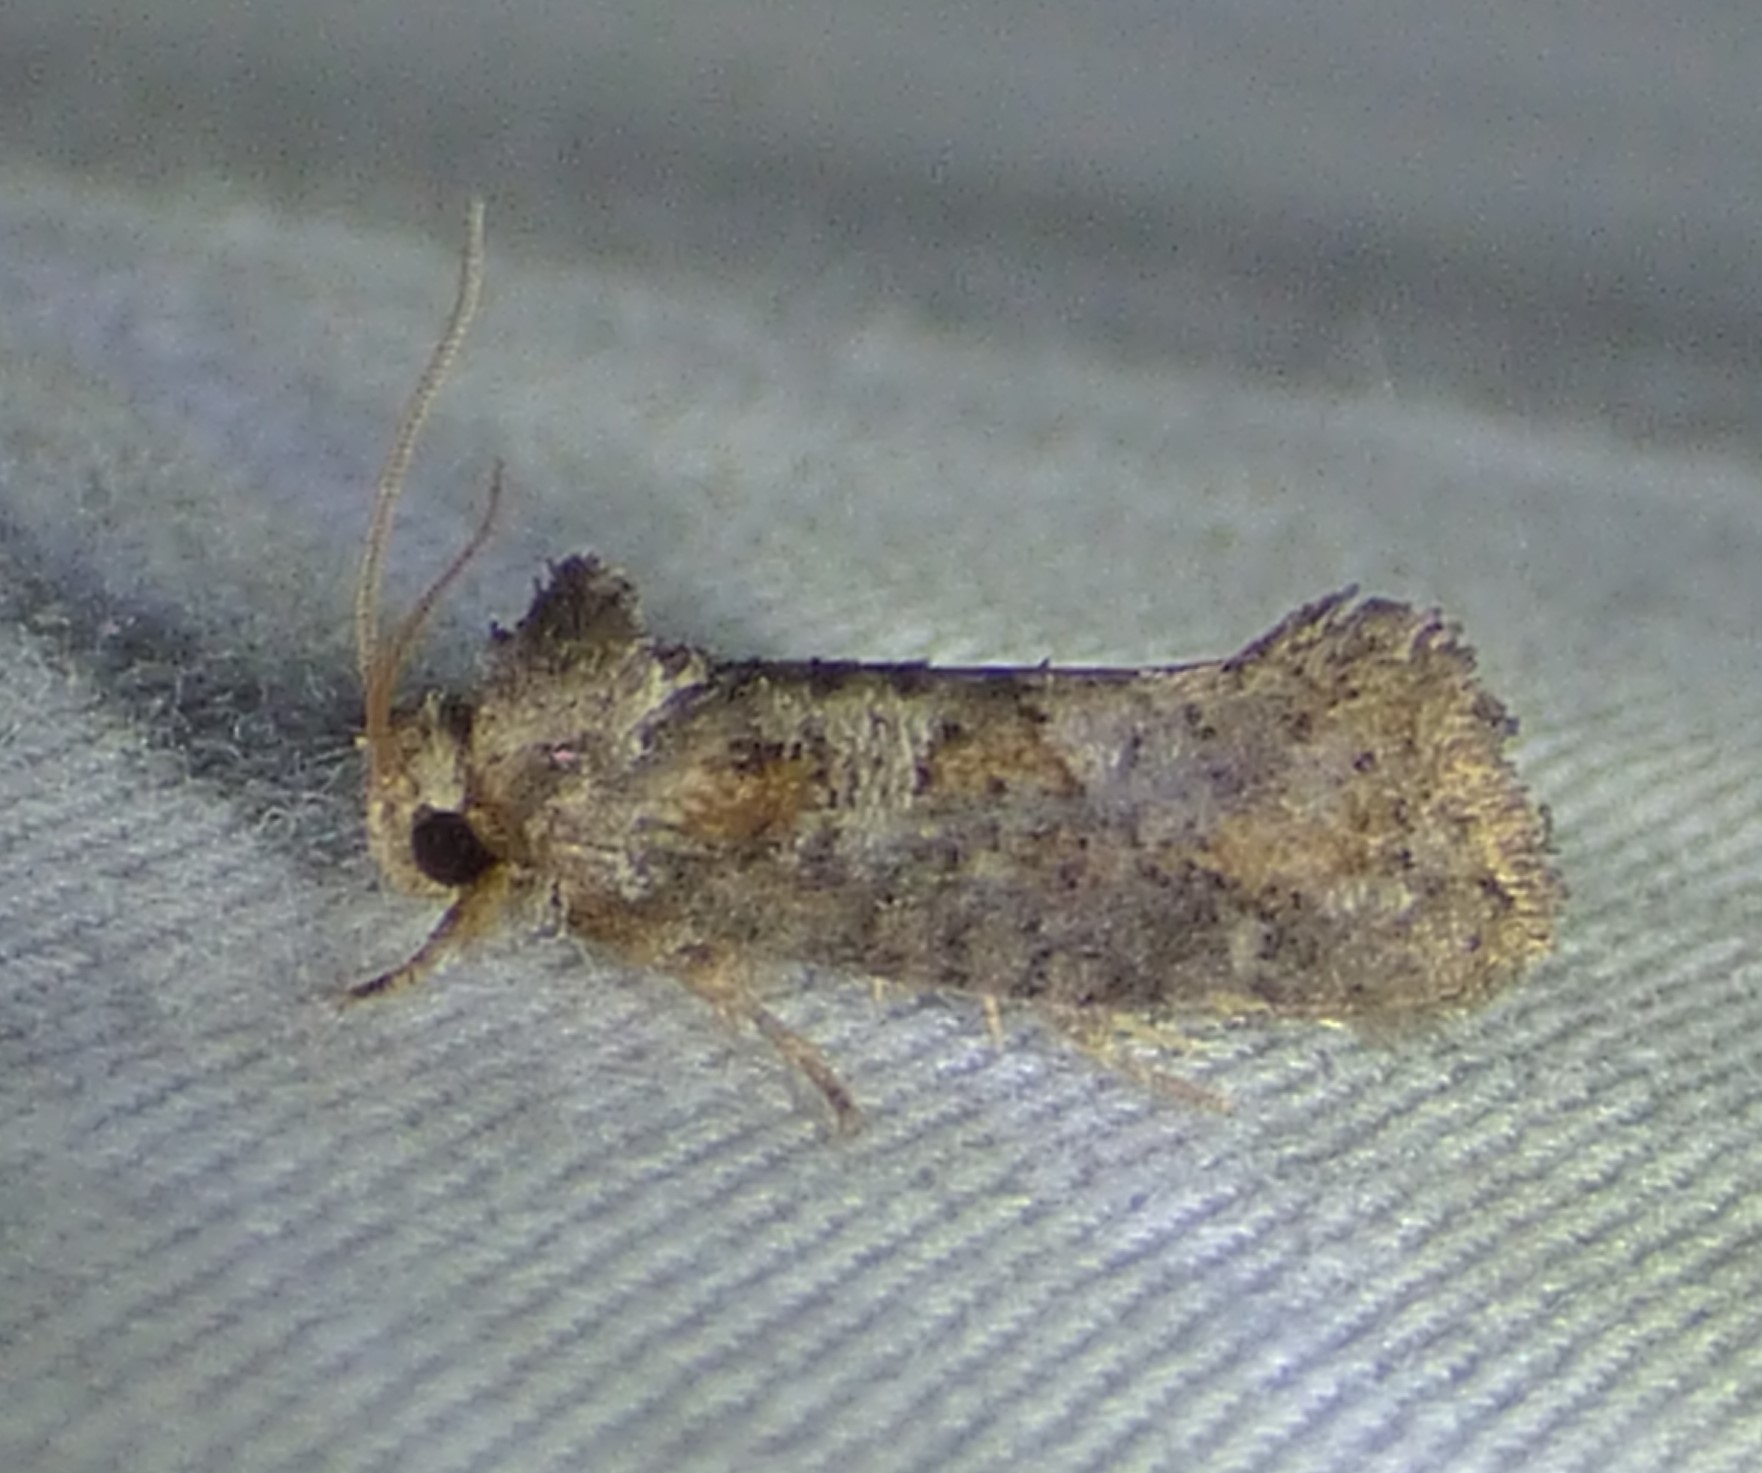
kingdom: Animalia
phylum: Arthropoda
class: Insecta
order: Lepidoptera
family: Tineidae
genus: Acrolophus
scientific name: Acrolophus piger
